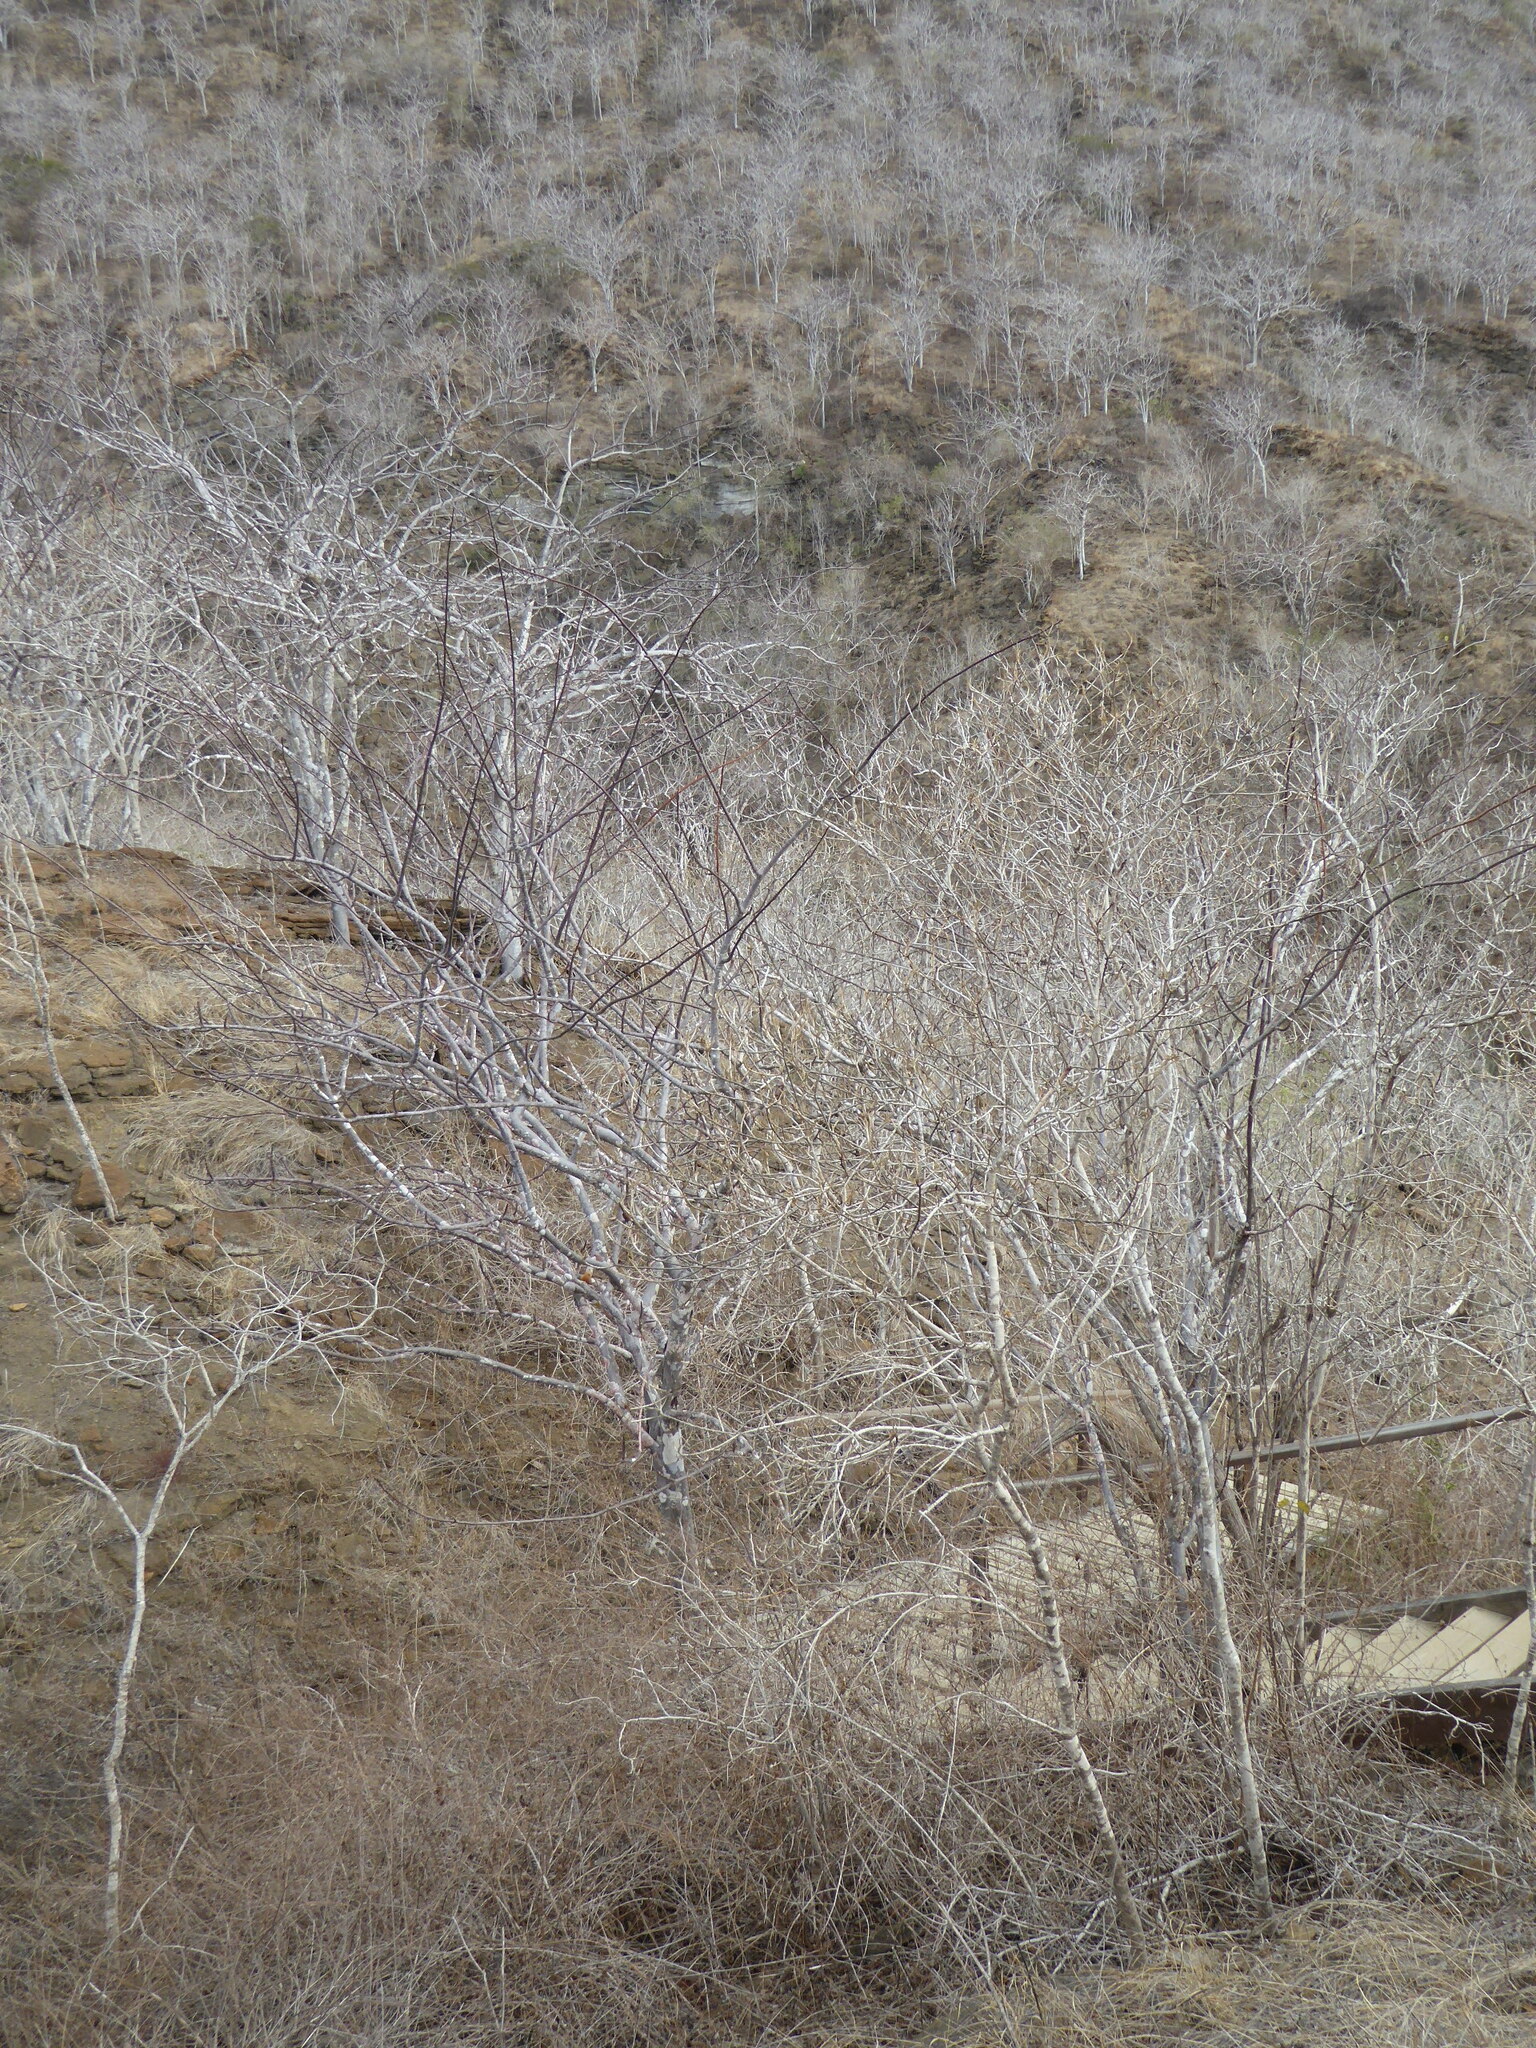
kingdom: Plantae
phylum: Tracheophyta
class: Magnoliopsida
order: Sapindales
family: Burseraceae
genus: Bursera
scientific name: Bursera graveolens
